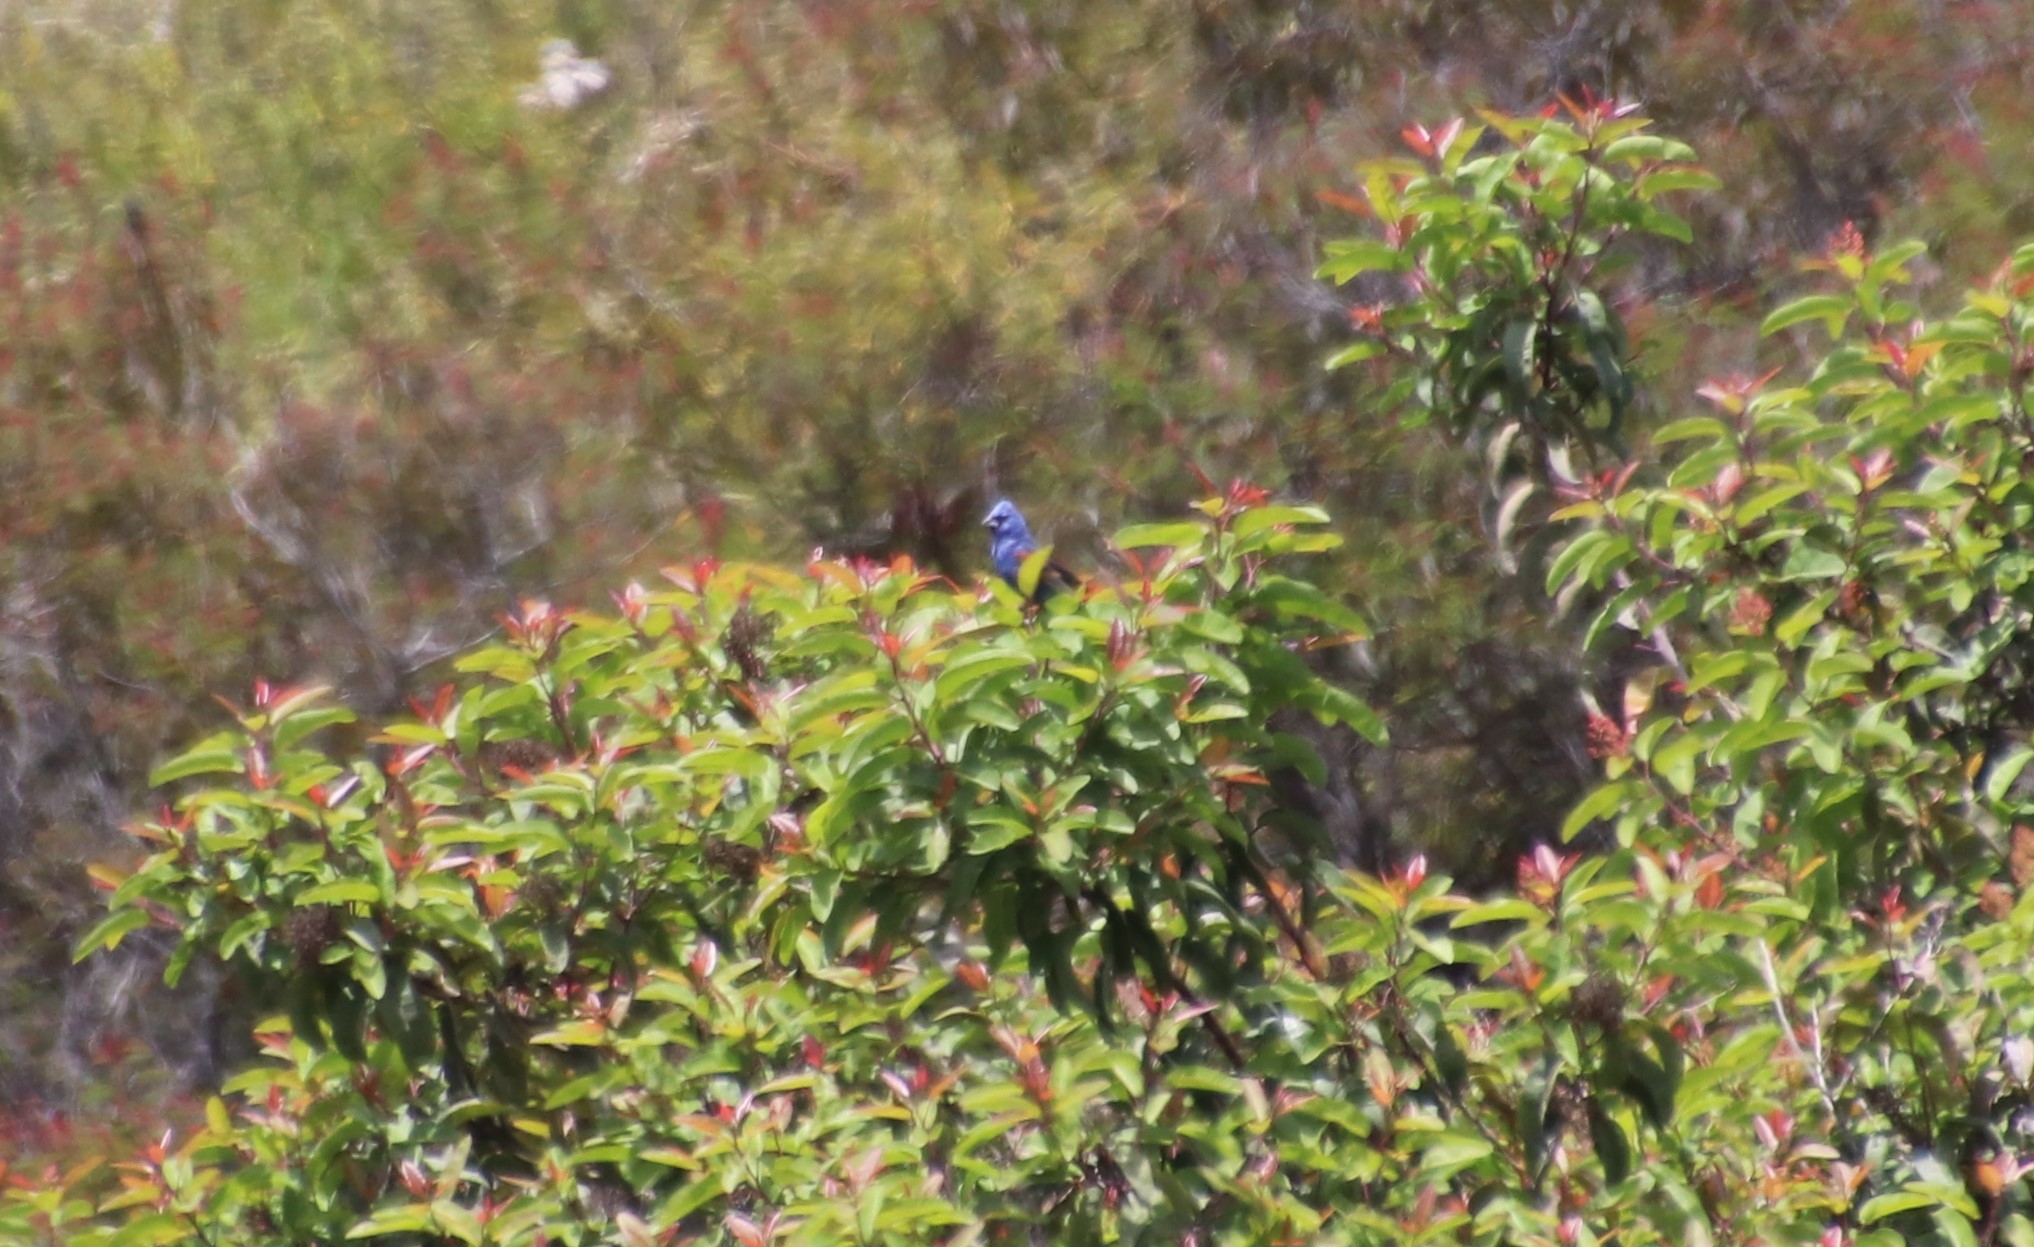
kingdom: Animalia
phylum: Chordata
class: Aves
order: Passeriformes
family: Cardinalidae
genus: Passerina
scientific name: Passerina caerulea
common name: Blue grosbeak
